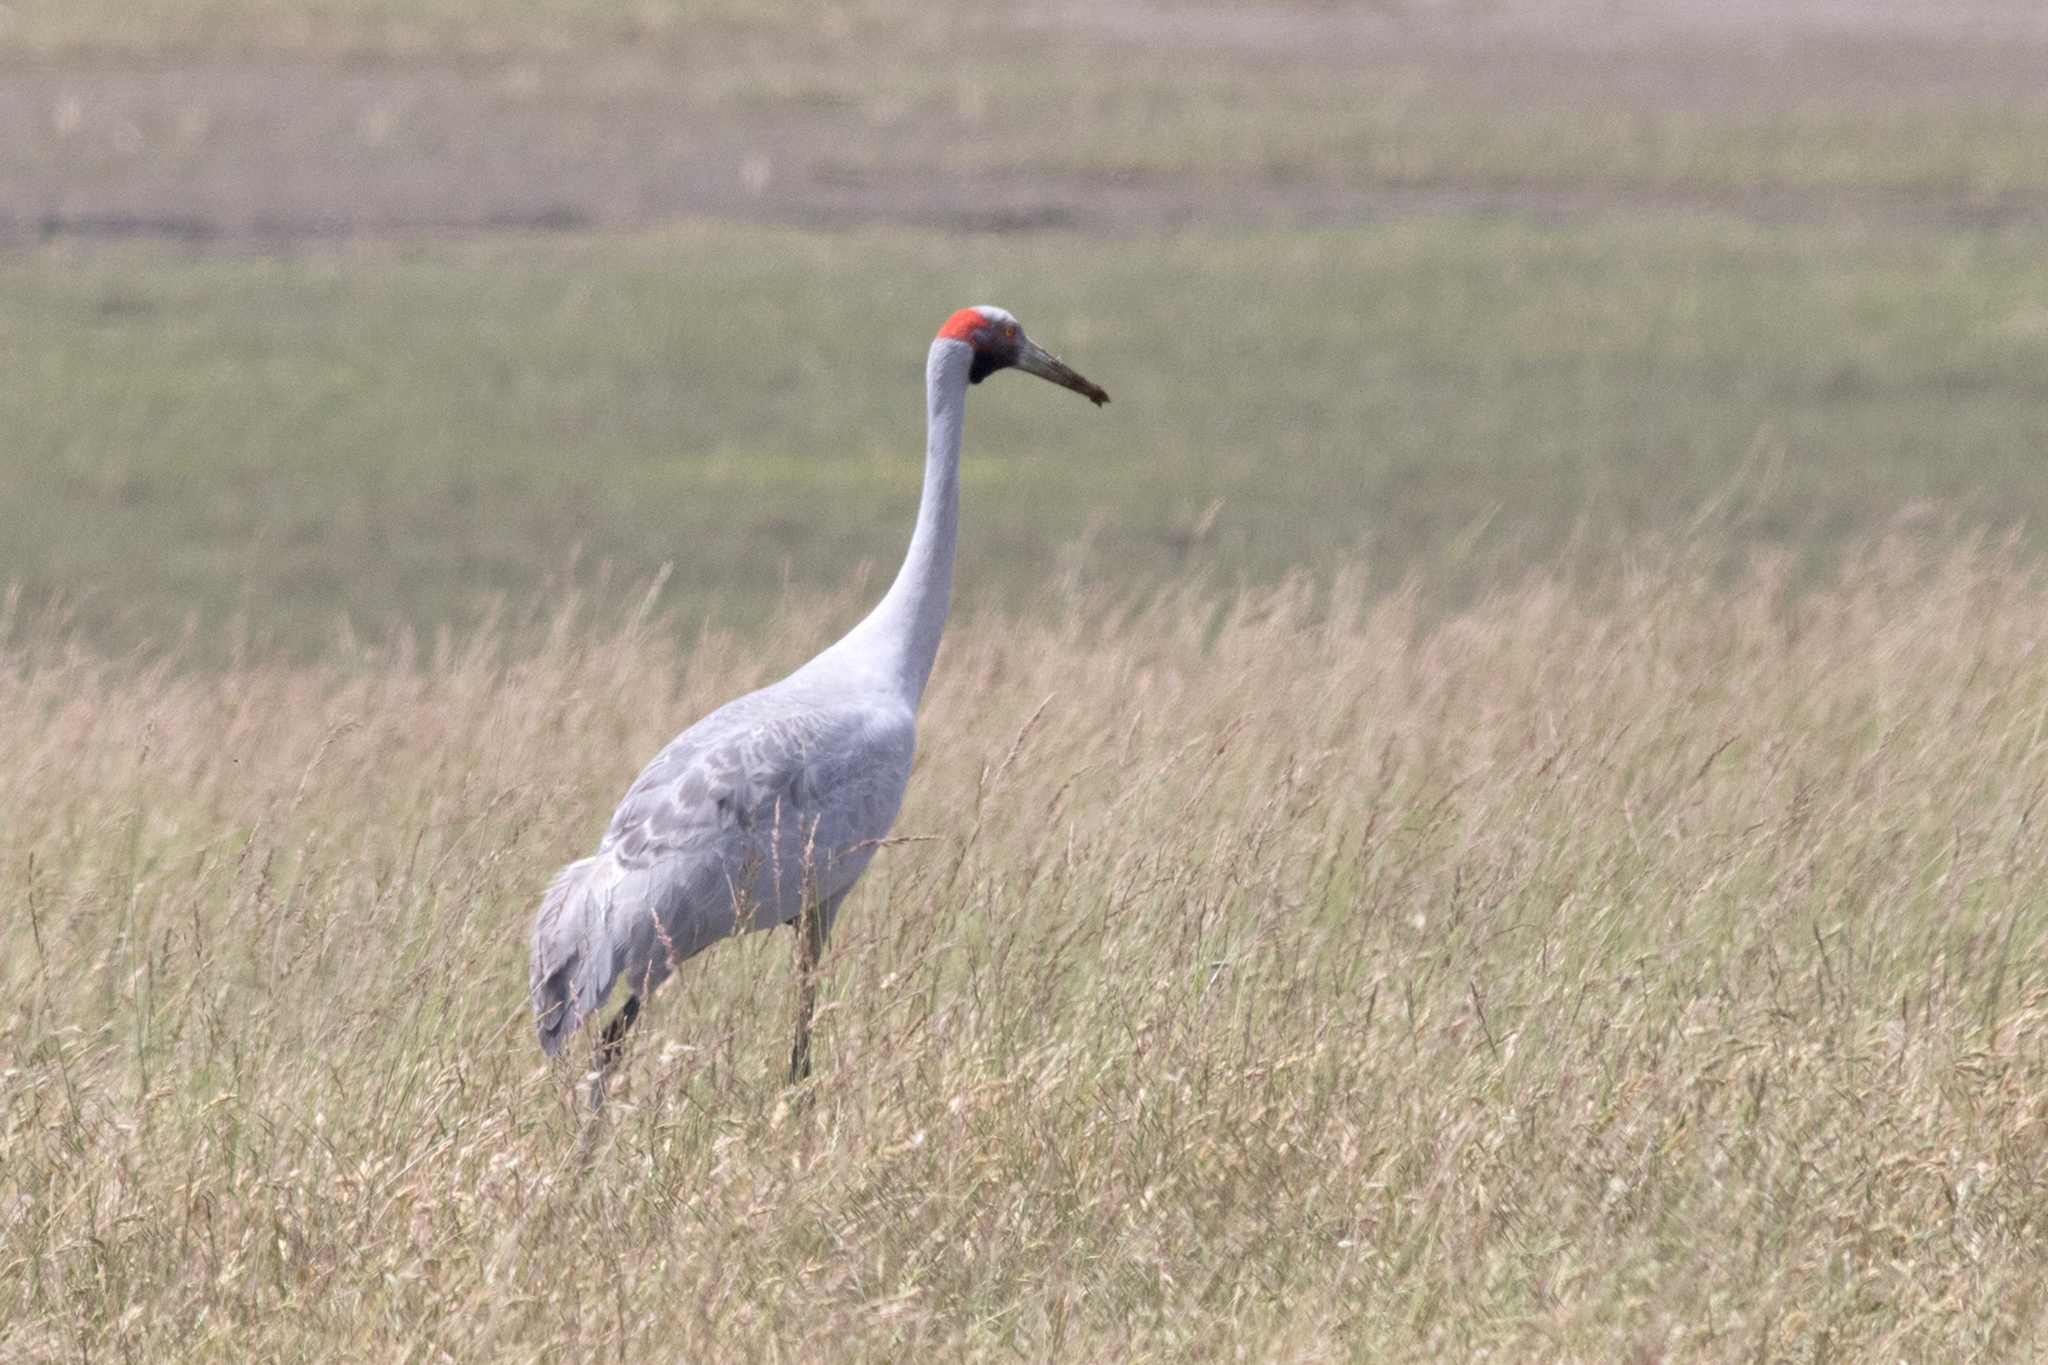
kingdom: Animalia
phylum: Chordata
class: Aves
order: Gruiformes
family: Gruidae
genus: Grus
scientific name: Grus rubicunda
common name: Brolga
